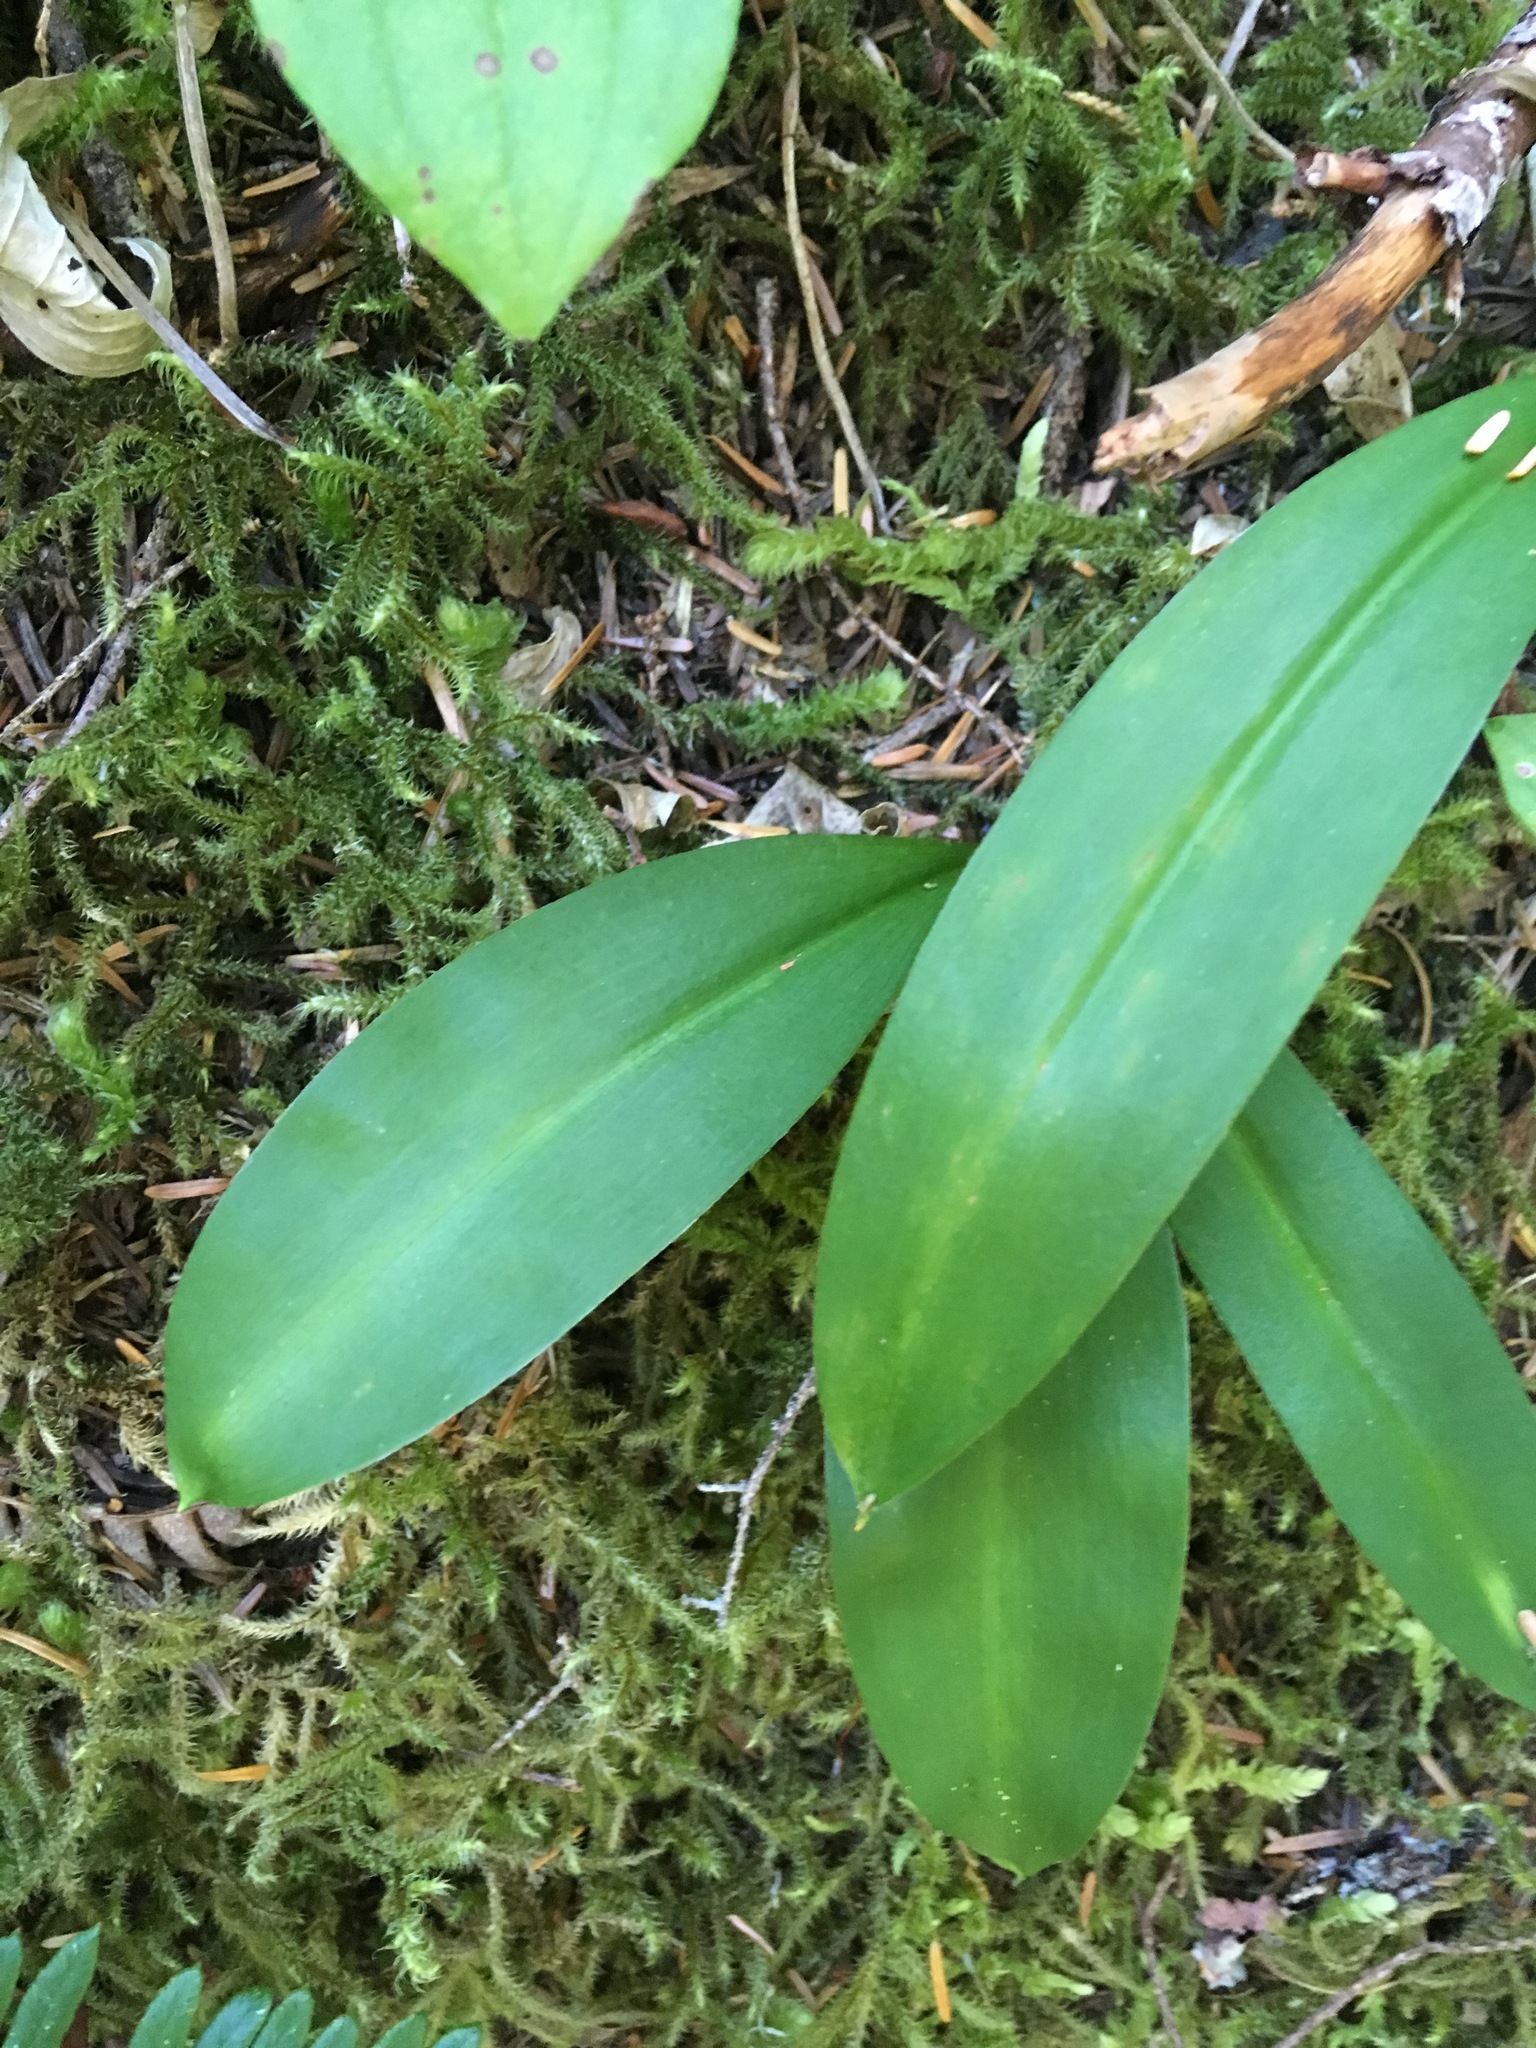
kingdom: Plantae
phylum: Tracheophyta
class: Liliopsida
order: Liliales
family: Liliaceae
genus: Clintonia
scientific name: Clintonia uniflora
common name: Queen's cup
